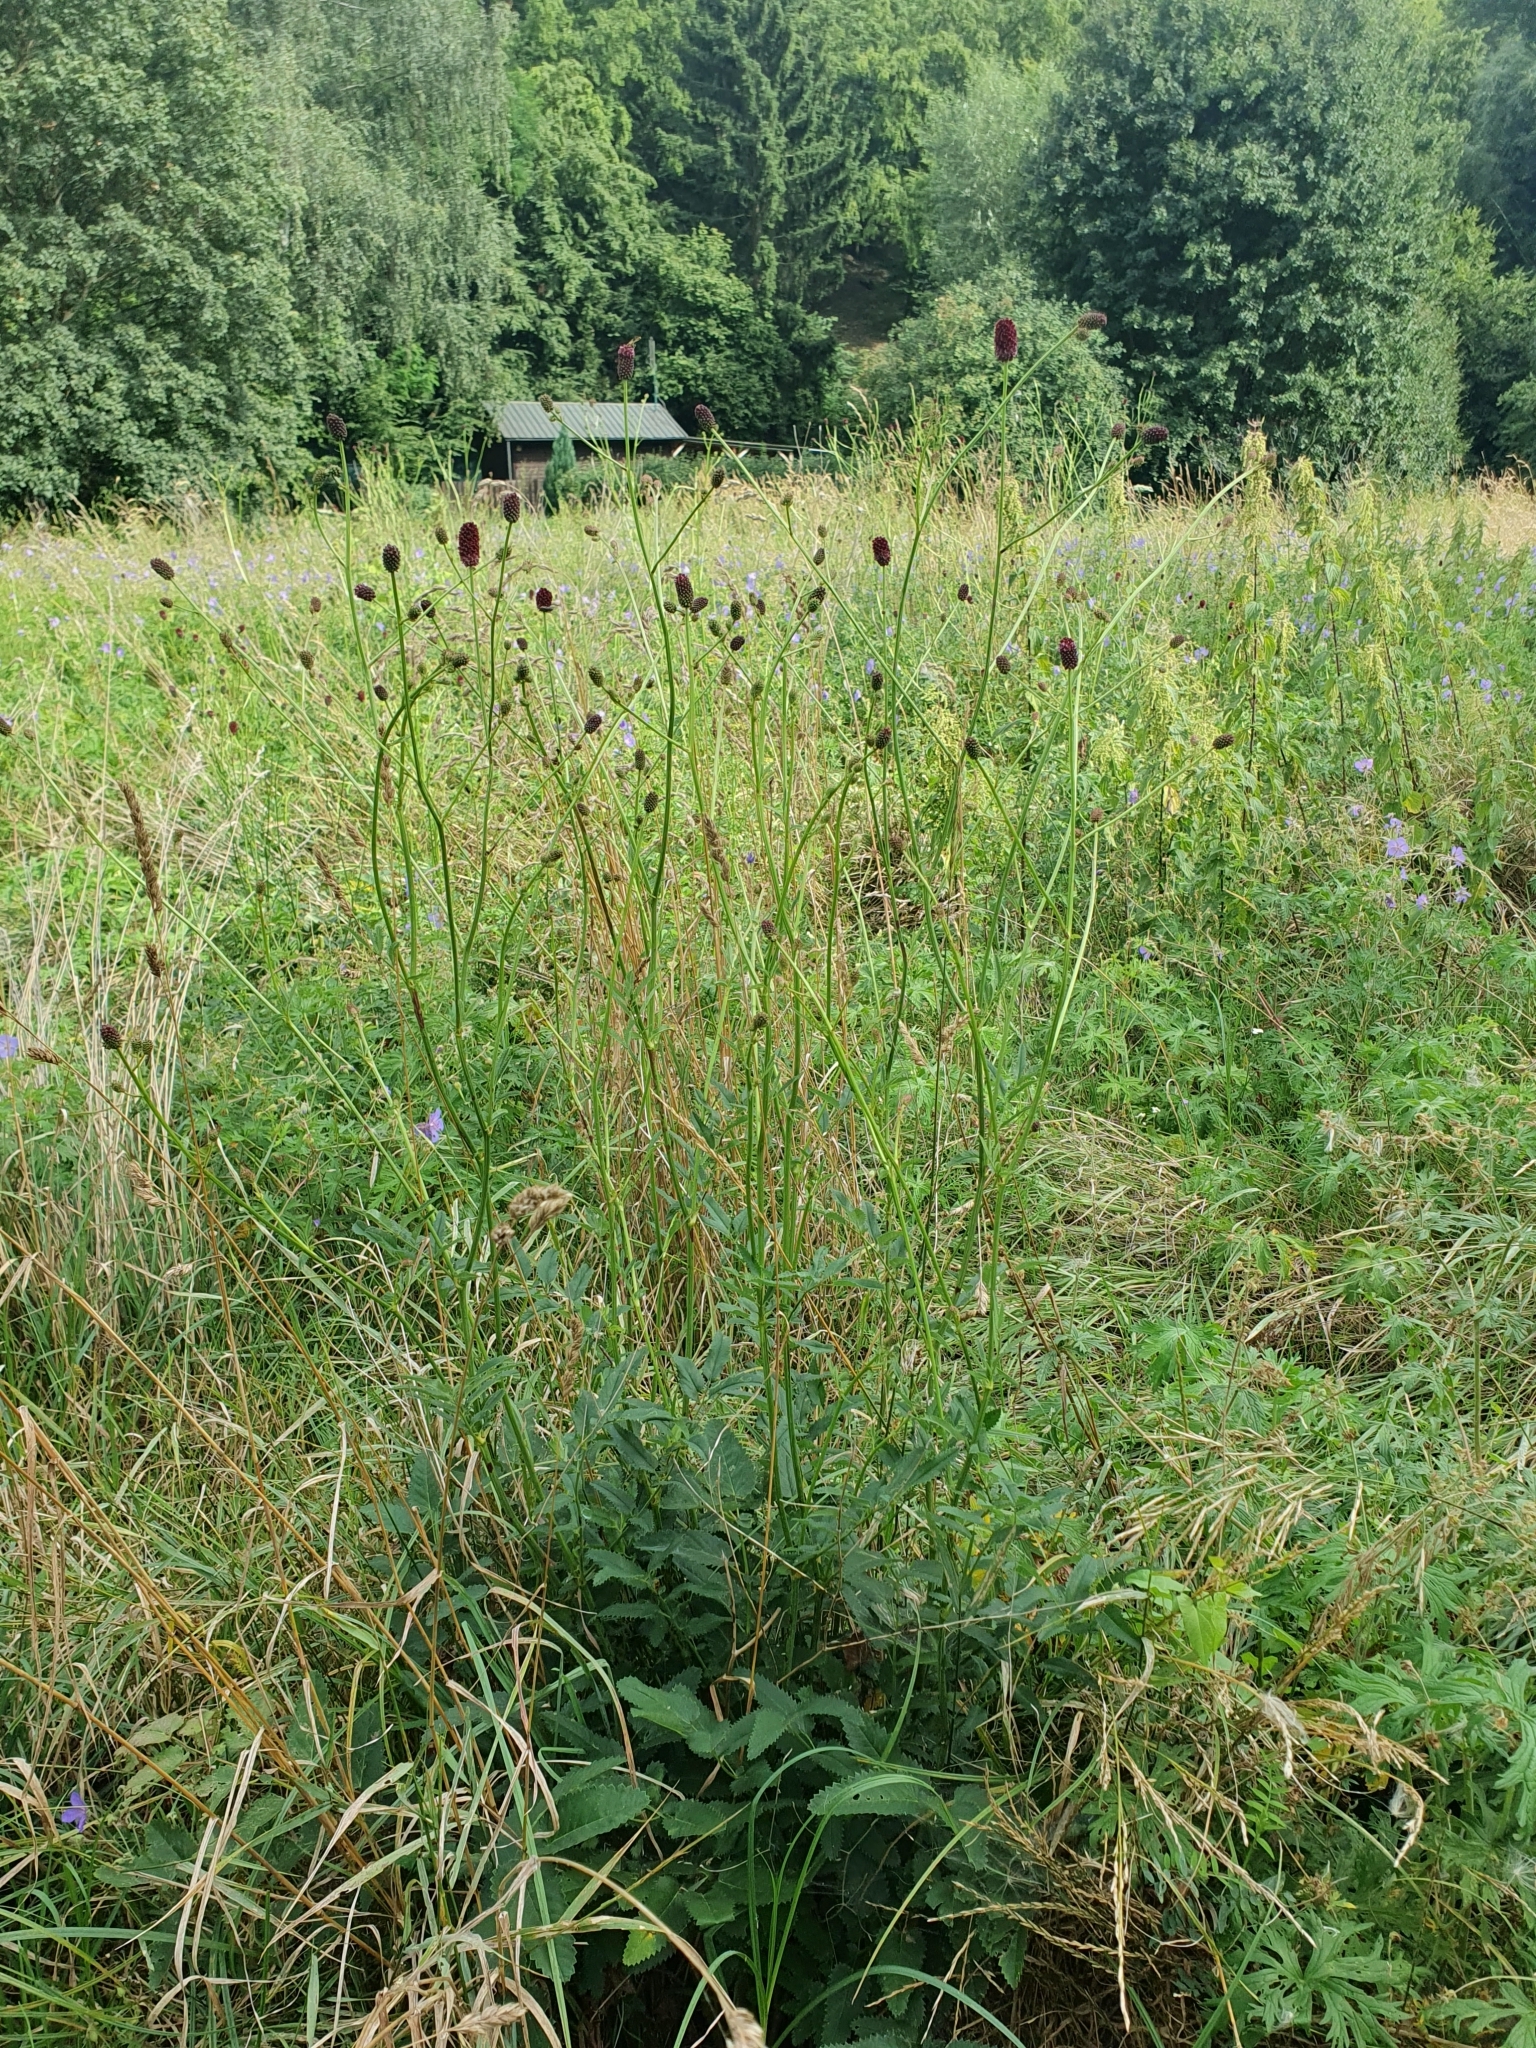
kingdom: Plantae
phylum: Tracheophyta
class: Magnoliopsida
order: Rosales
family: Rosaceae
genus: Sanguisorba
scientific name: Sanguisorba officinalis
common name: Great burnet
